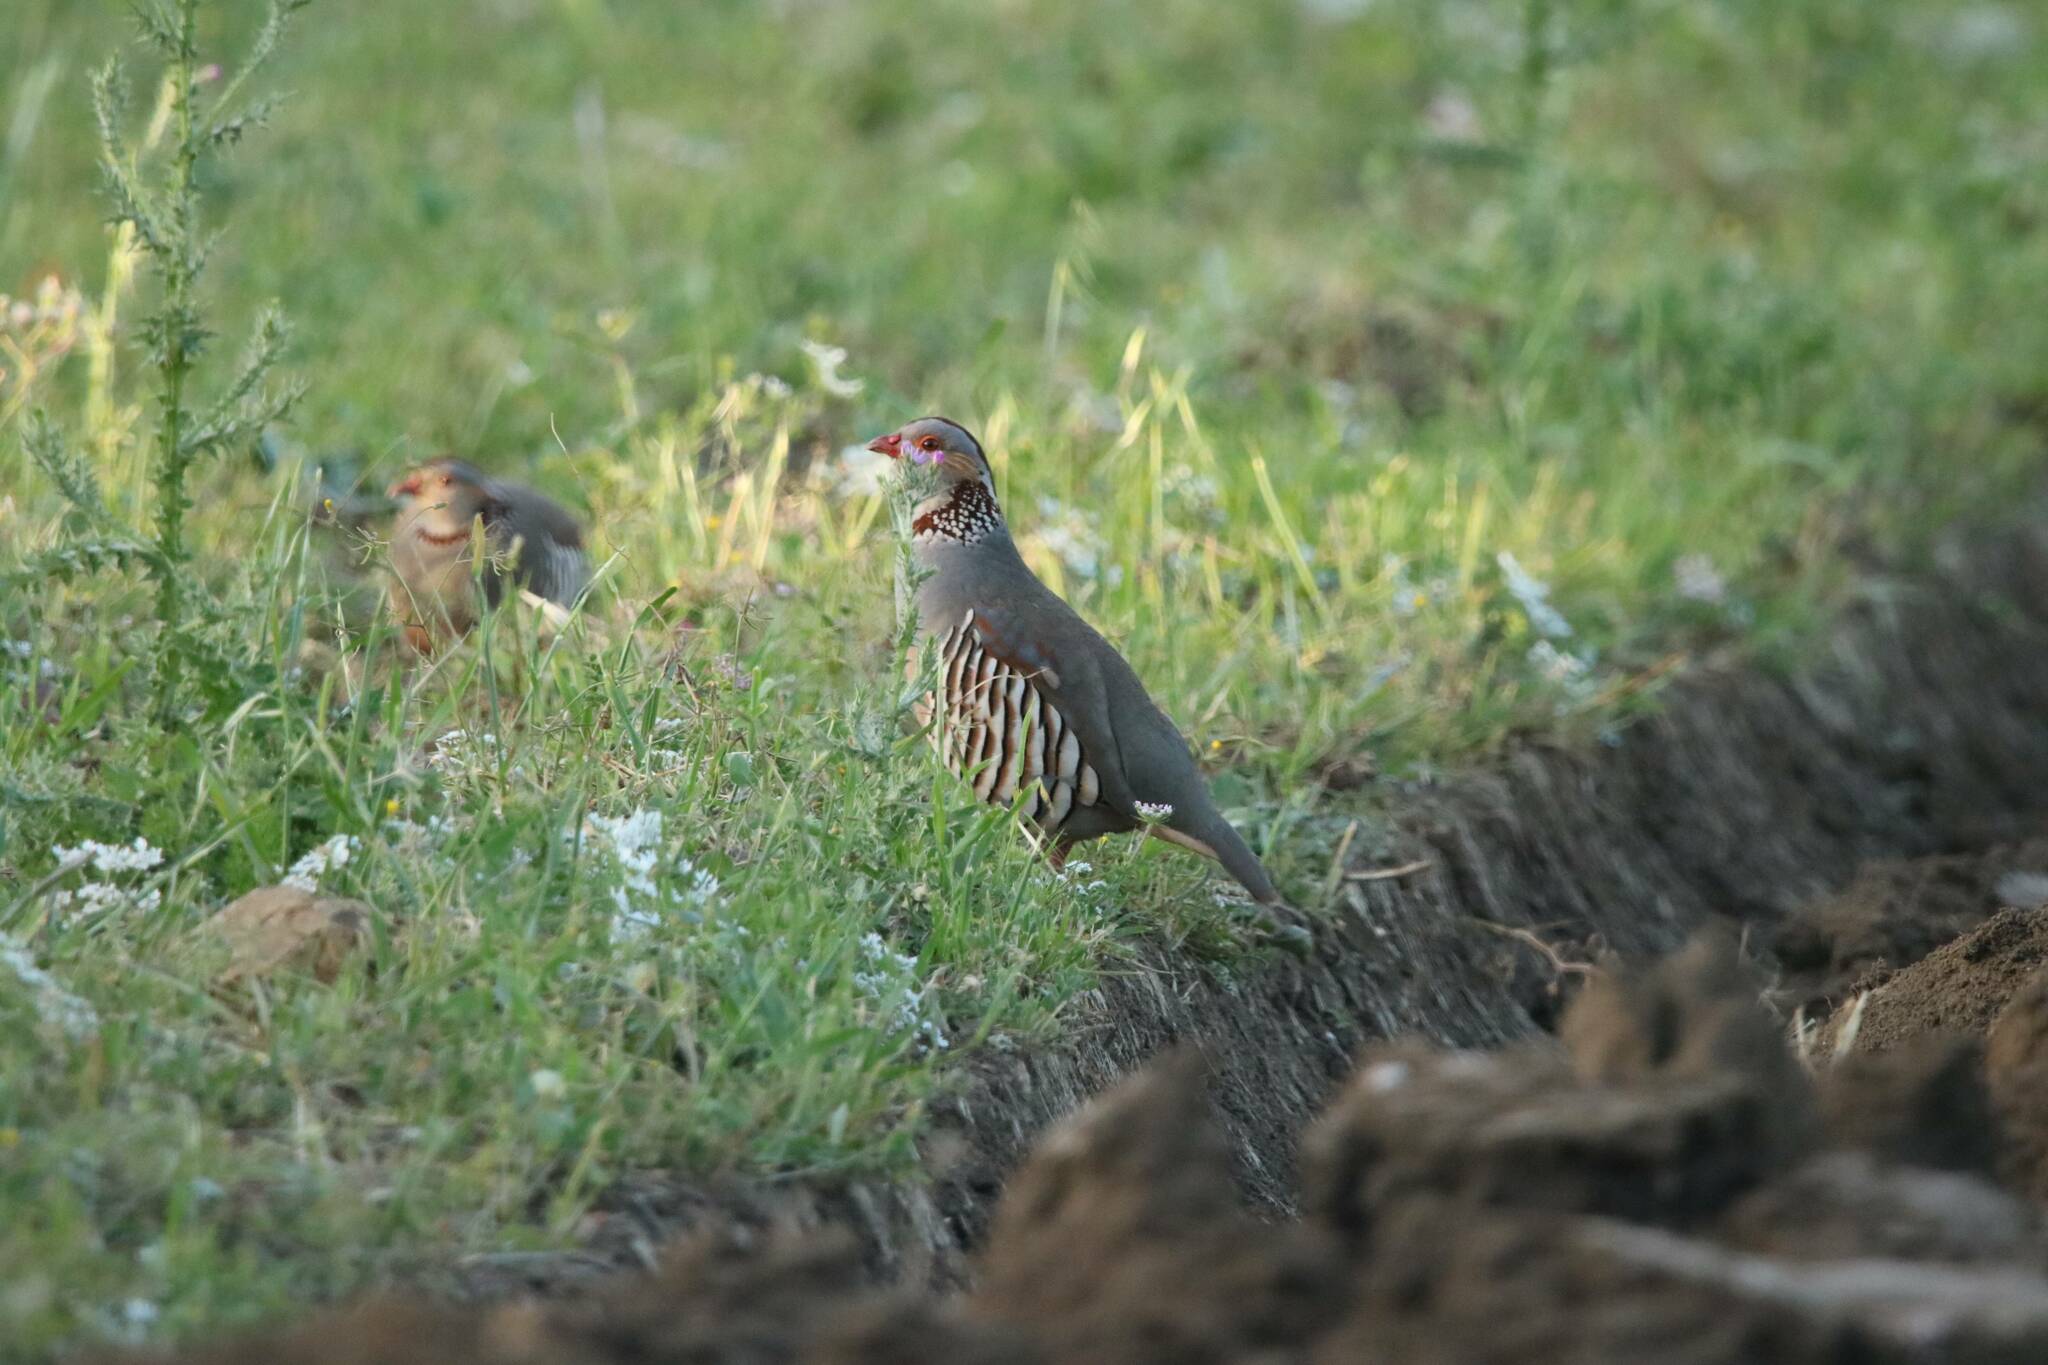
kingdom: Animalia
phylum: Chordata
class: Aves
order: Galliformes
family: Phasianidae
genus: Alectoris
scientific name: Alectoris barbara
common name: Barbary partridge
